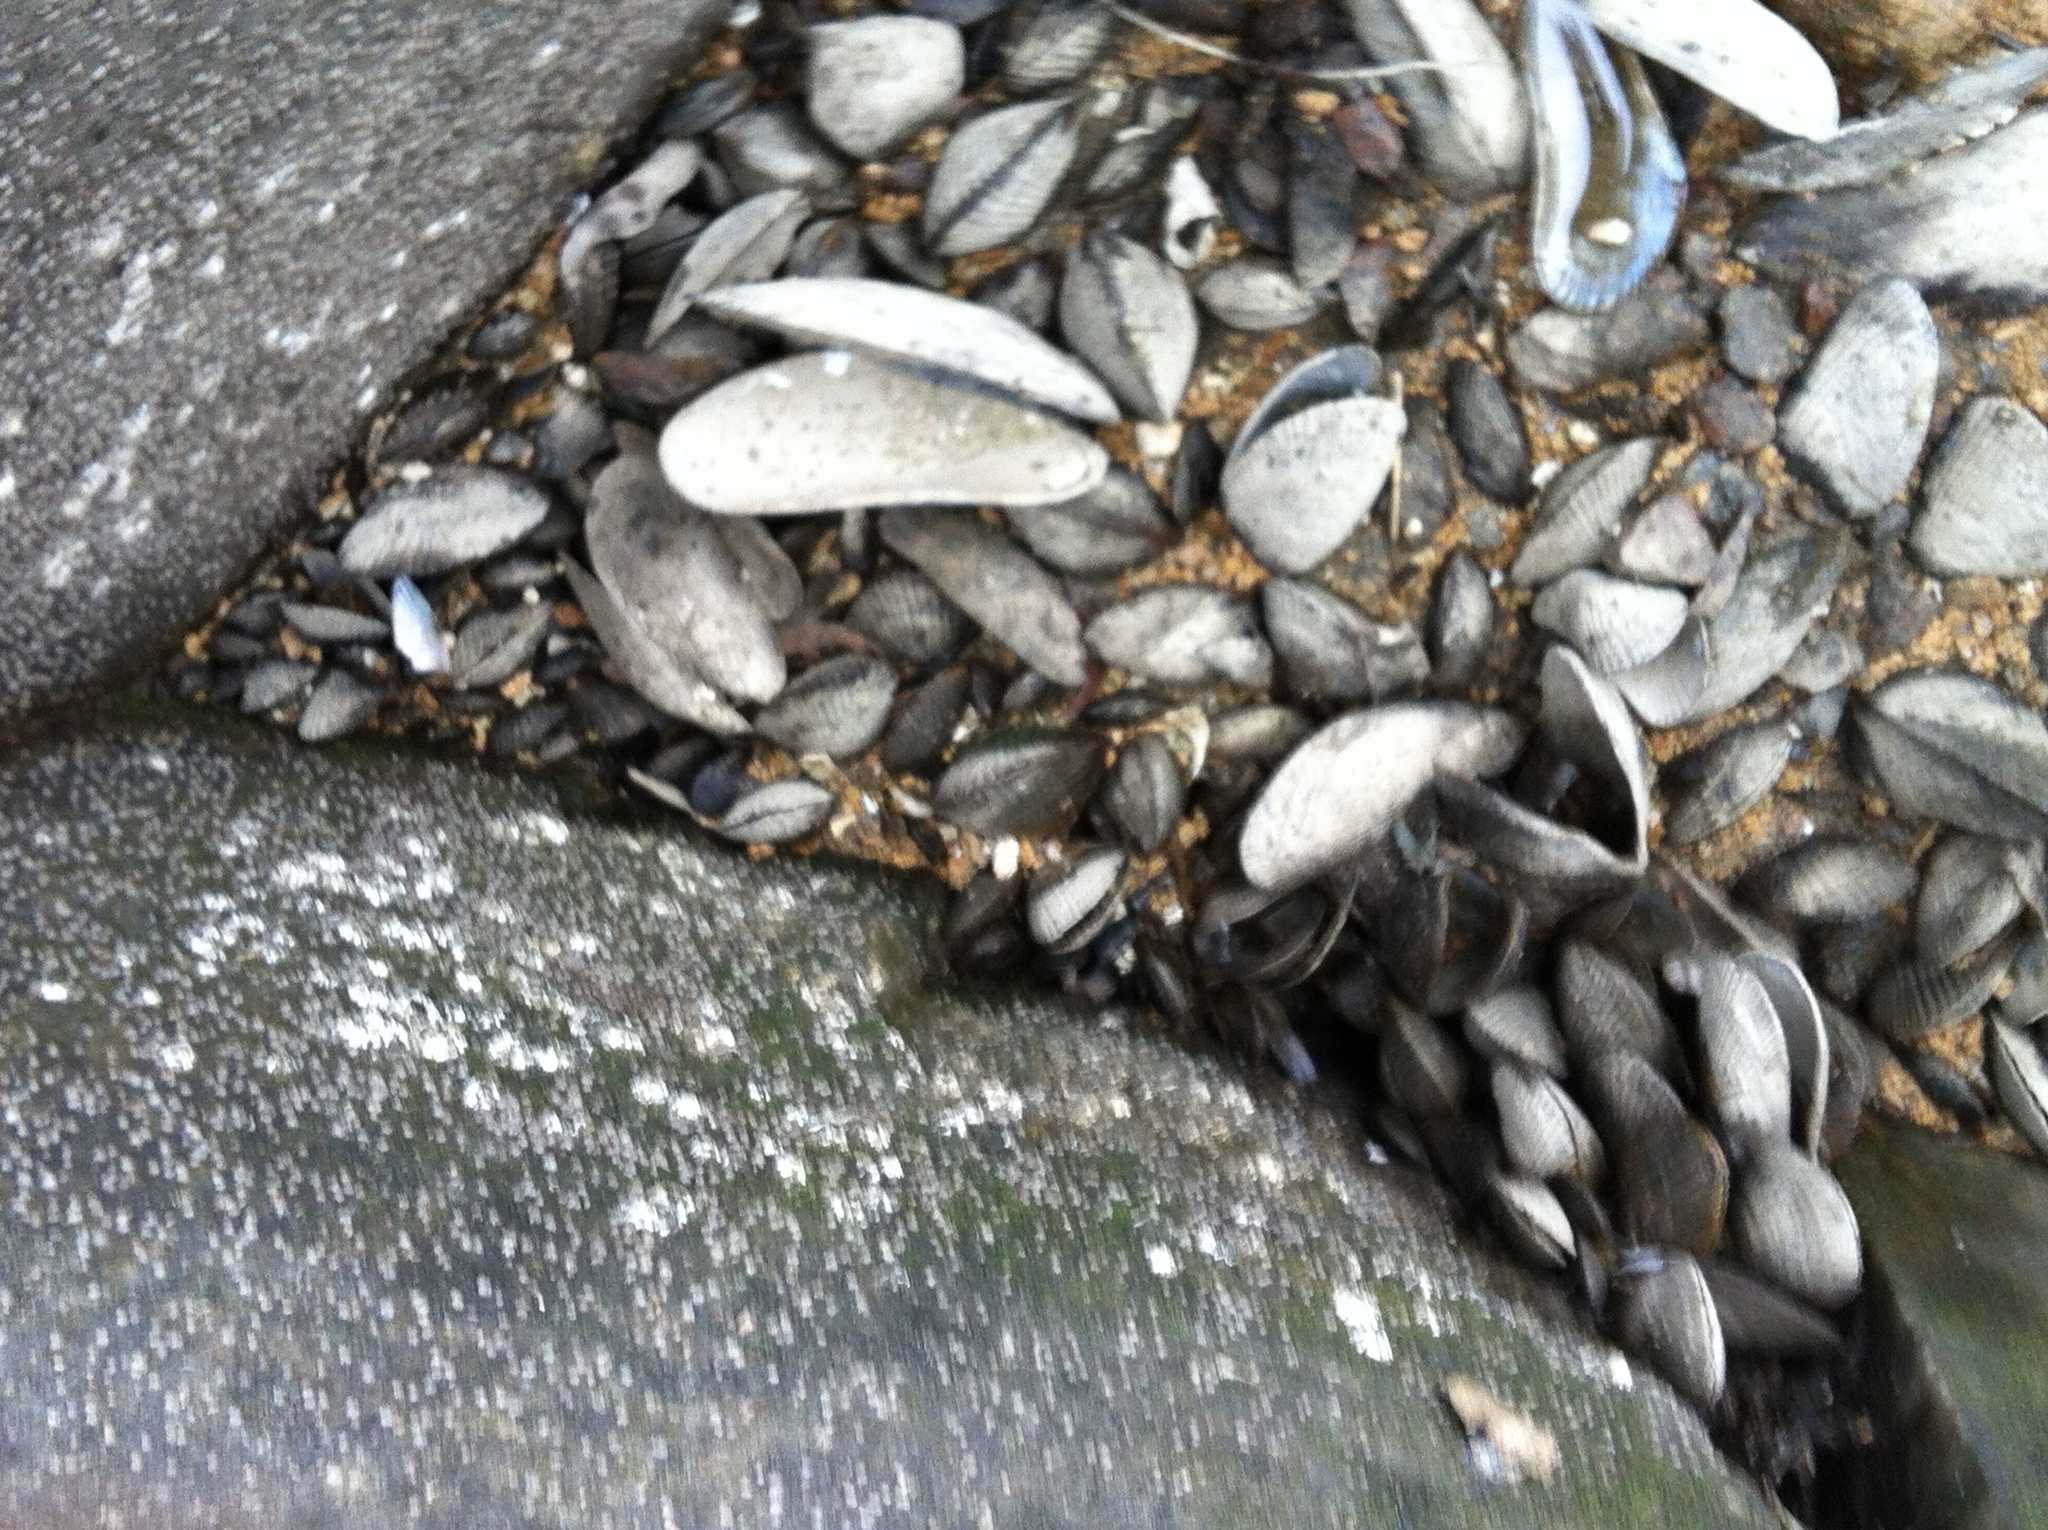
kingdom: Animalia
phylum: Mollusca
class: Bivalvia
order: Mytilida
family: Mytilidae
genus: Geukensia
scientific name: Geukensia demissa
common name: Ribbed mussel
